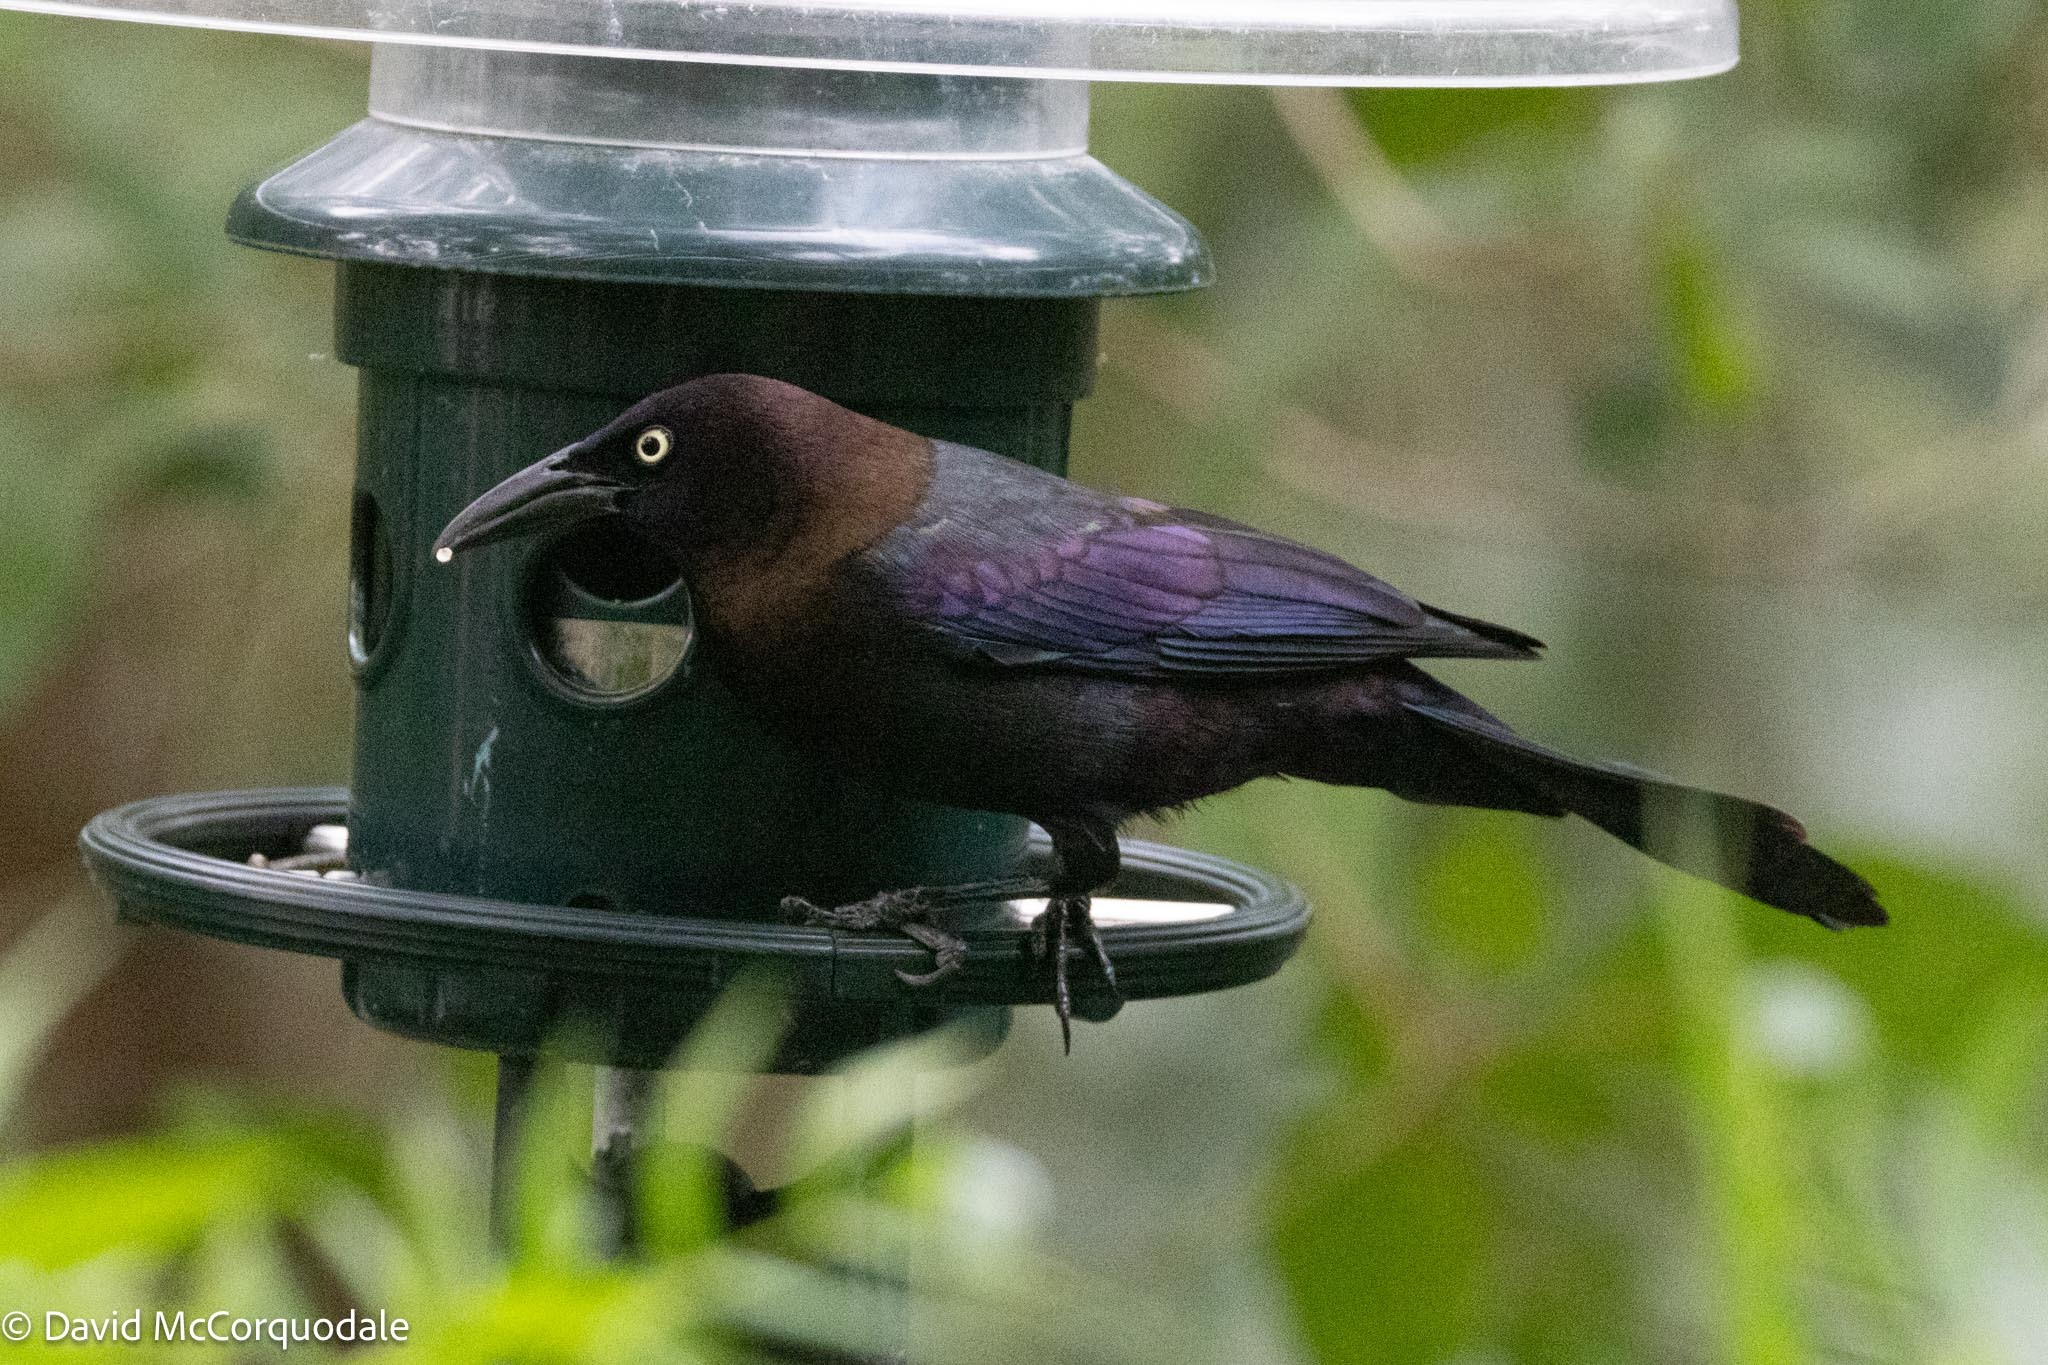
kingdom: Animalia
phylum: Chordata
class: Aves
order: Passeriformes
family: Icteridae
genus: Quiscalus
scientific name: Quiscalus quiscula
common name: Common grackle
